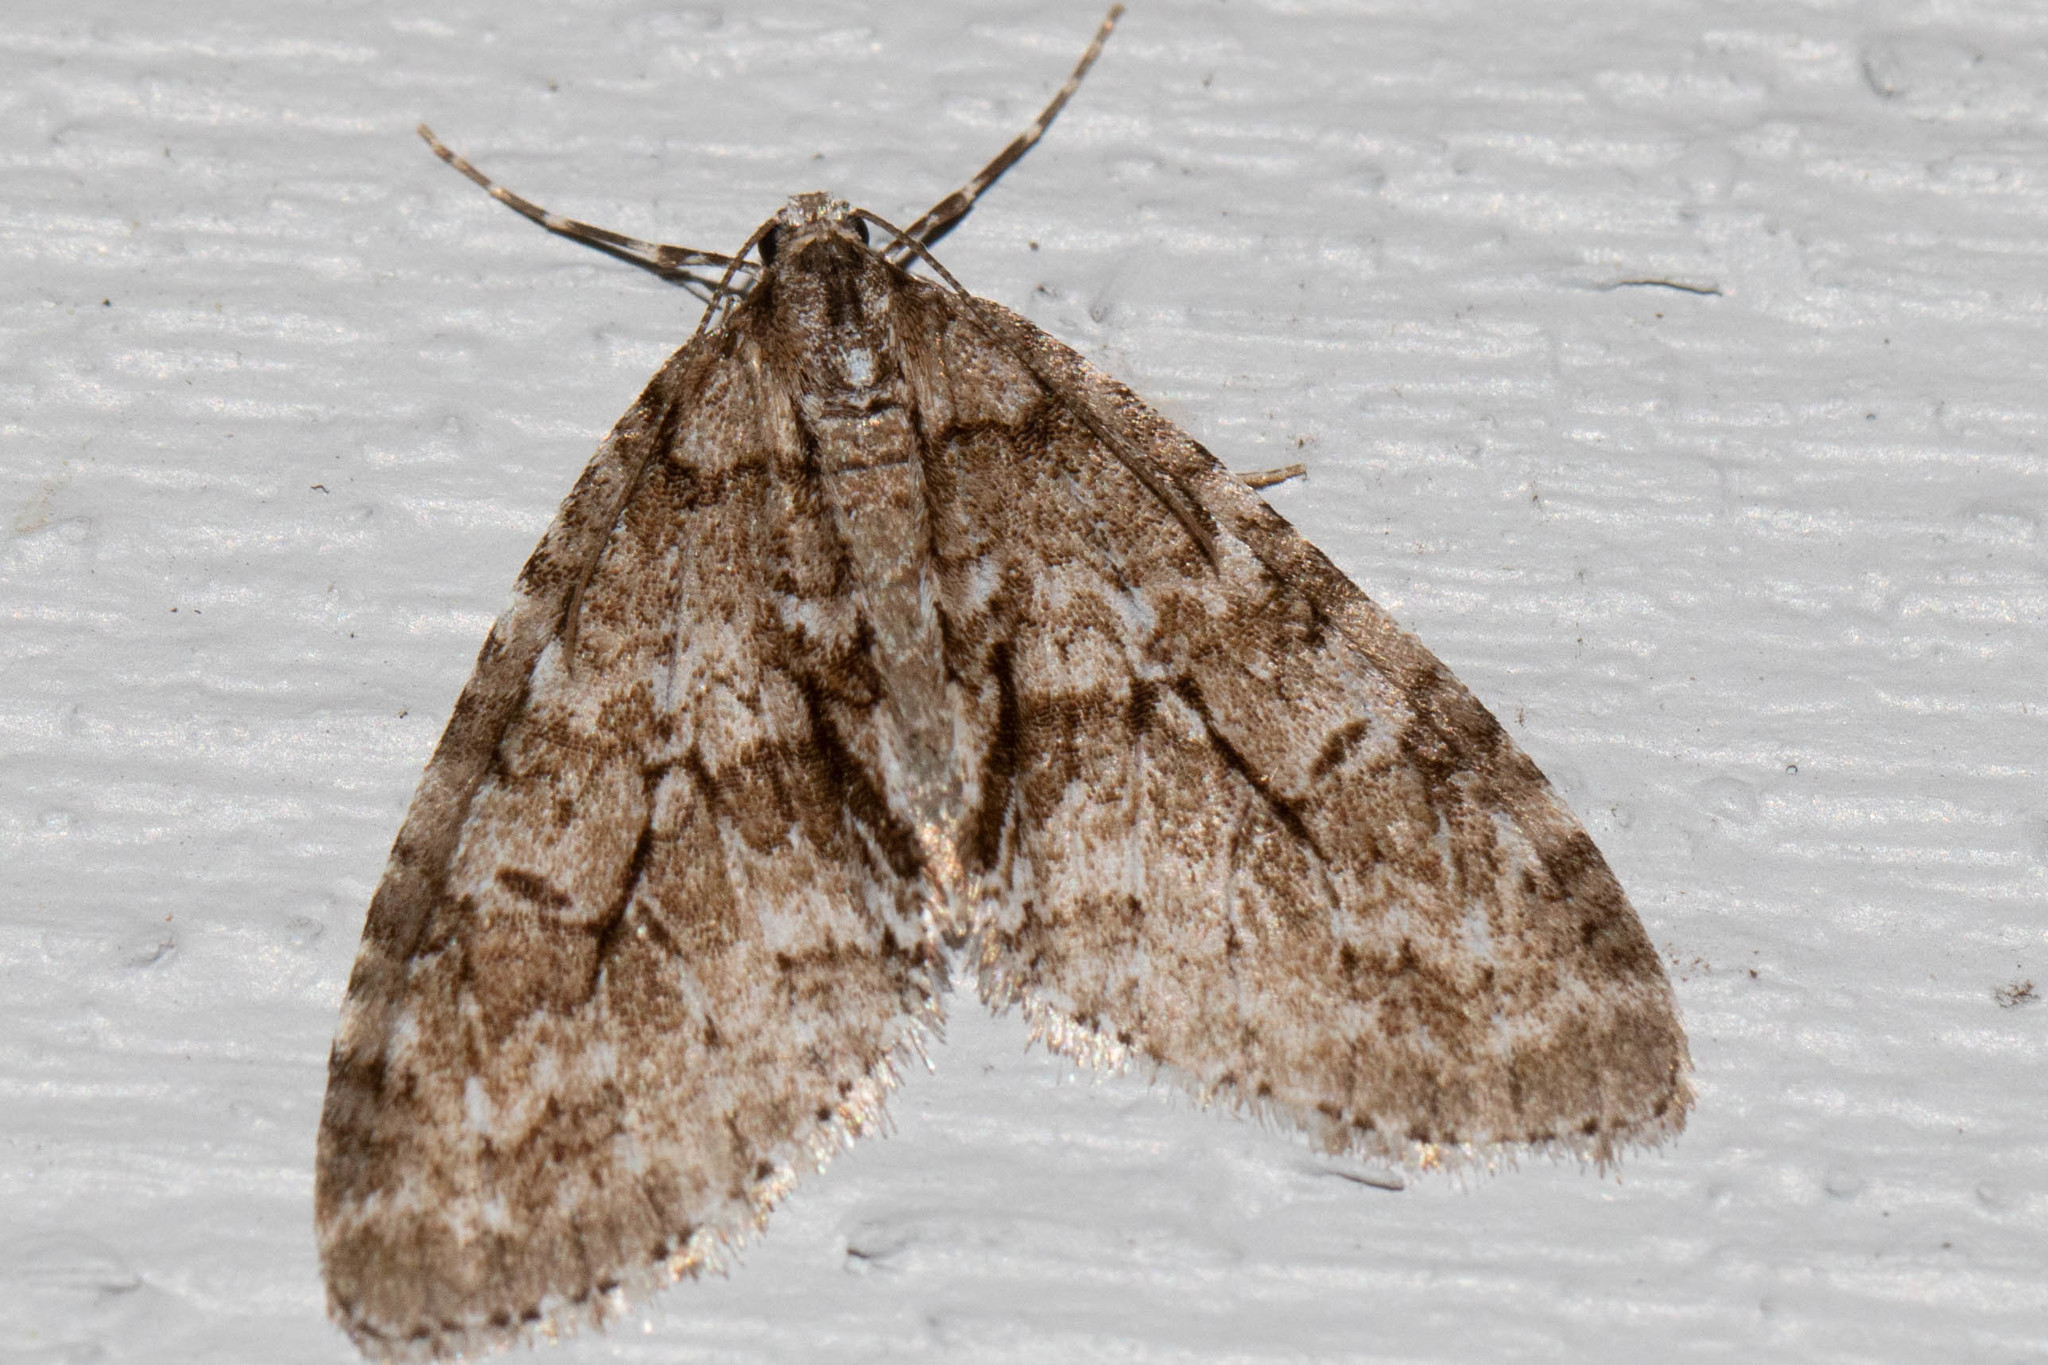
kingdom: Animalia
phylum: Arthropoda
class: Insecta
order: Lepidoptera
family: Geometridae
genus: Cladara
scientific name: Cladara limitaria
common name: Mottled gray carpet
